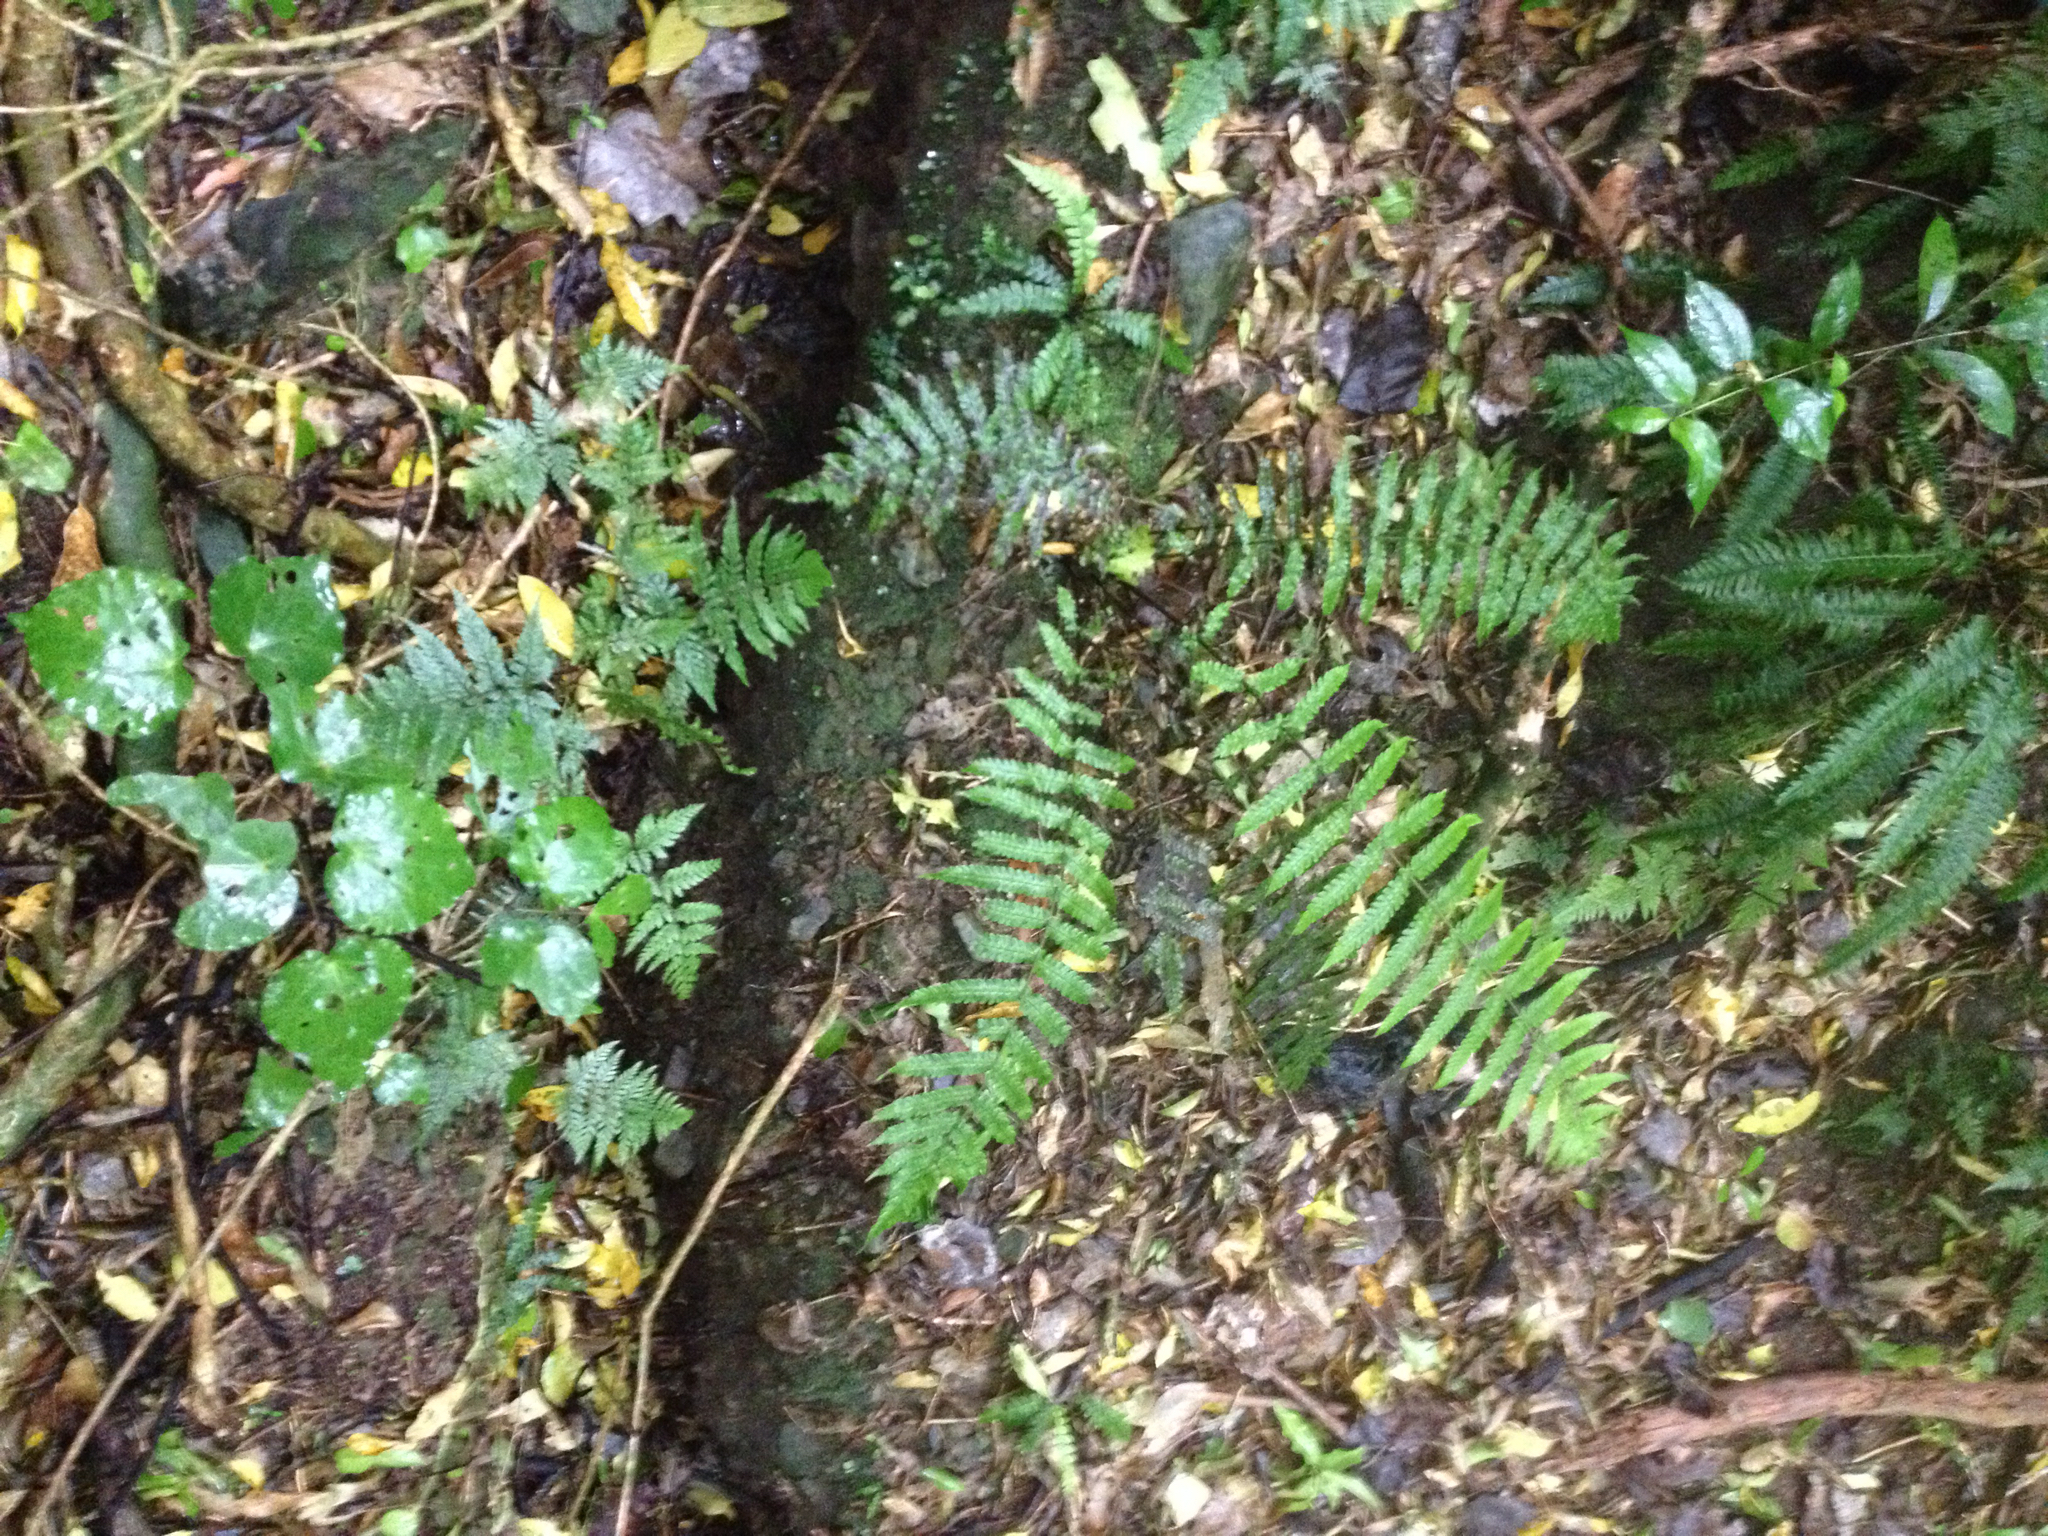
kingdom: Plantae
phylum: Tracheophyta
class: Polypodiopsida
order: Polypodiales
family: Thelypteridaceae
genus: Pakau
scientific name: Pakau pennigera
